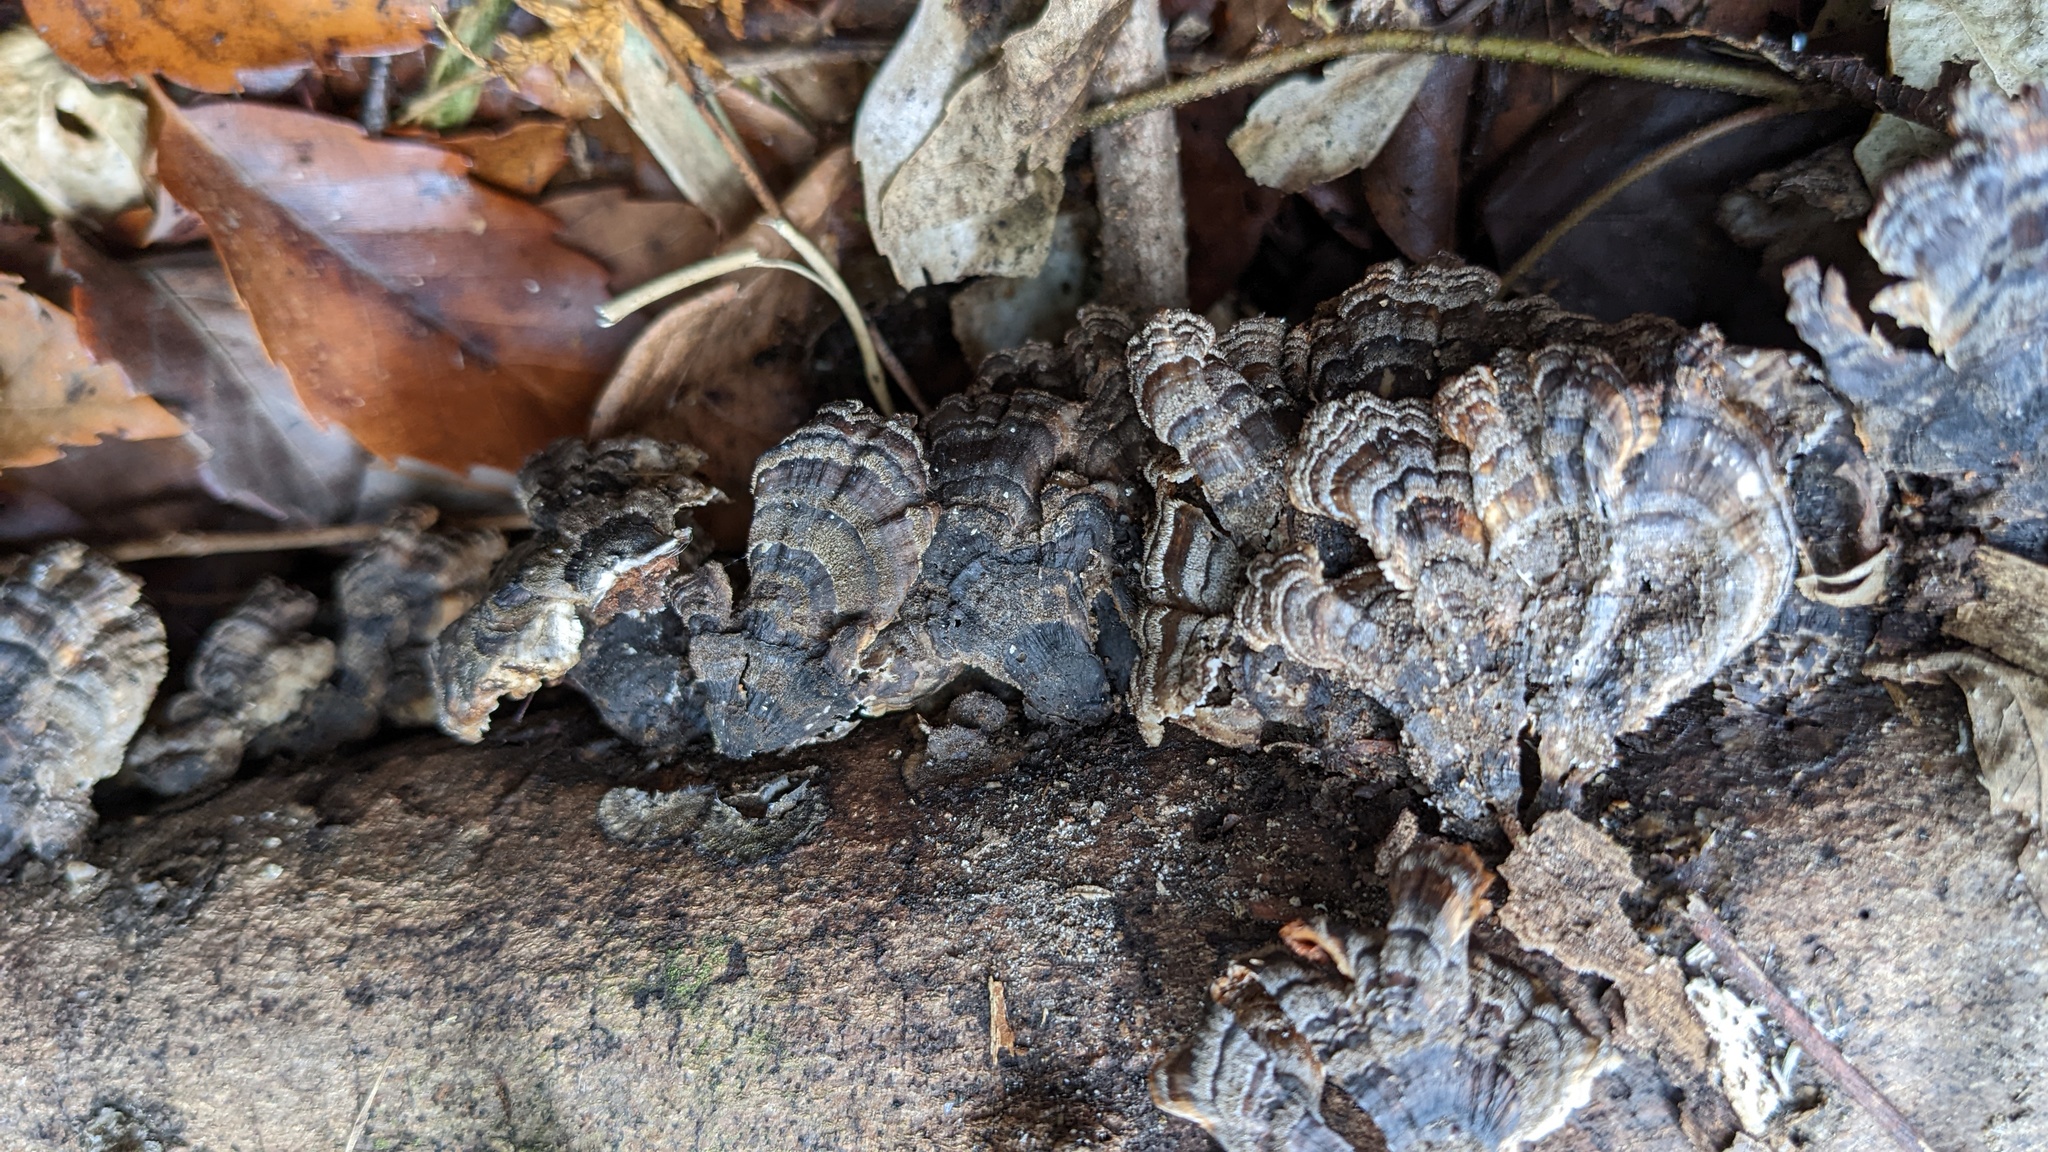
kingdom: Fungi
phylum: Basidiomycota
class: Agaricomycetes
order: Polyporales
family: Polyporaceae
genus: Trametes
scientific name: Trametes versicolor
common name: Turkeytail
